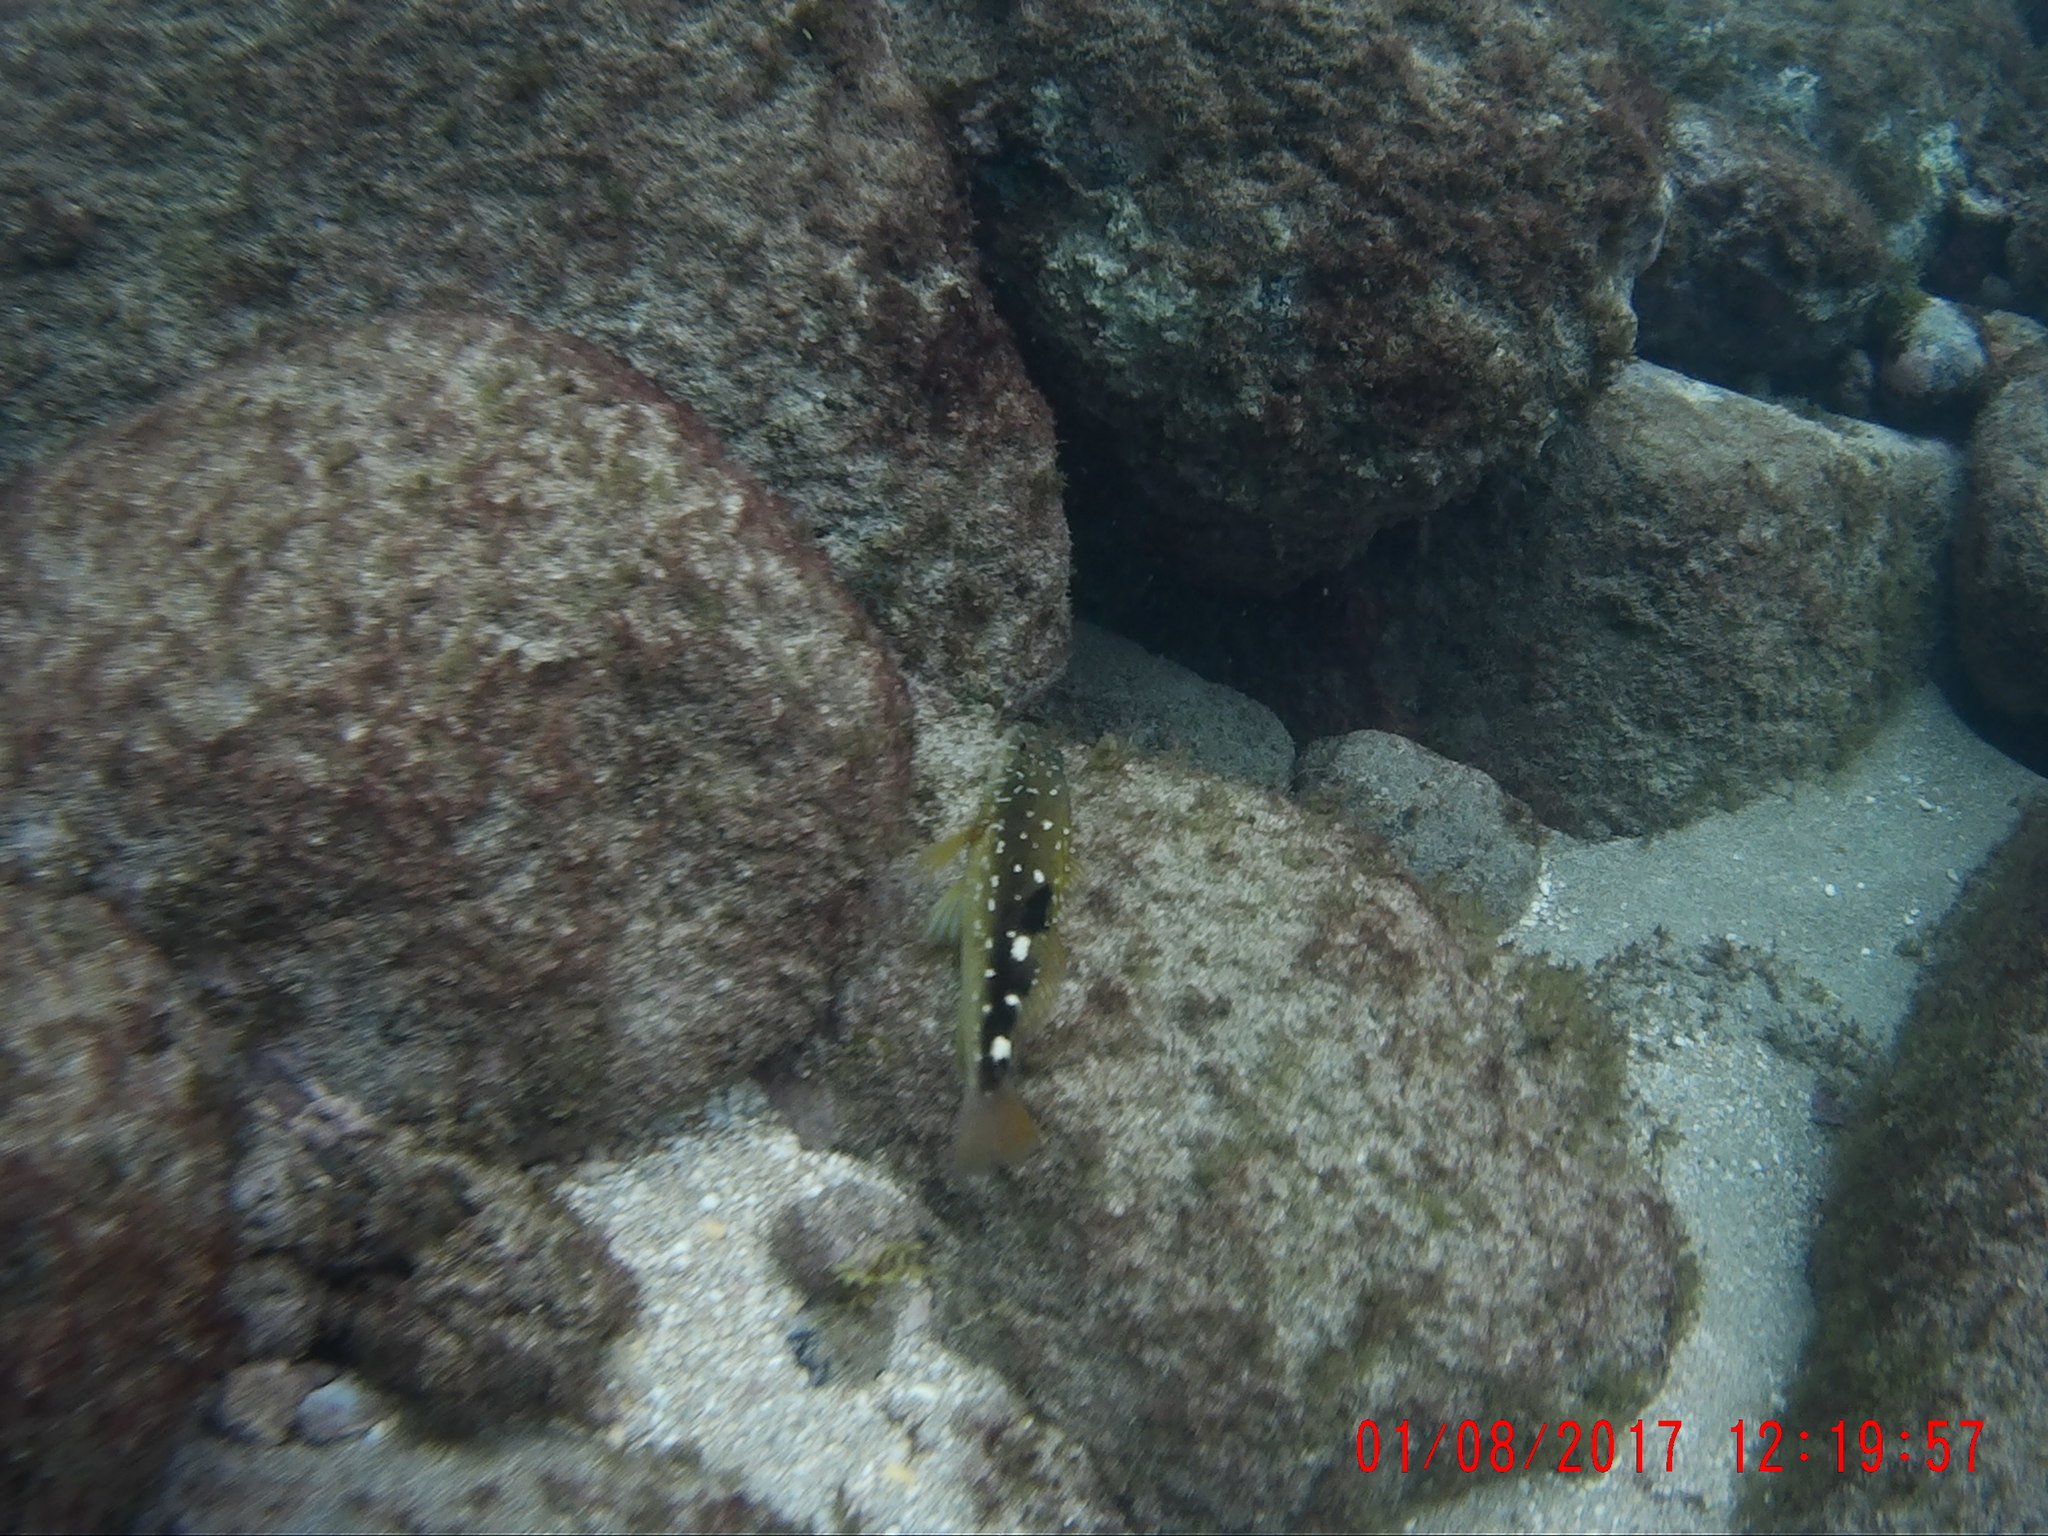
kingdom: Animalia
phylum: Chordata
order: Perciformes
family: Cirrhitidae
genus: Cirrhitus
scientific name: Cirrhitus atlanticus
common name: West african hawkfish
